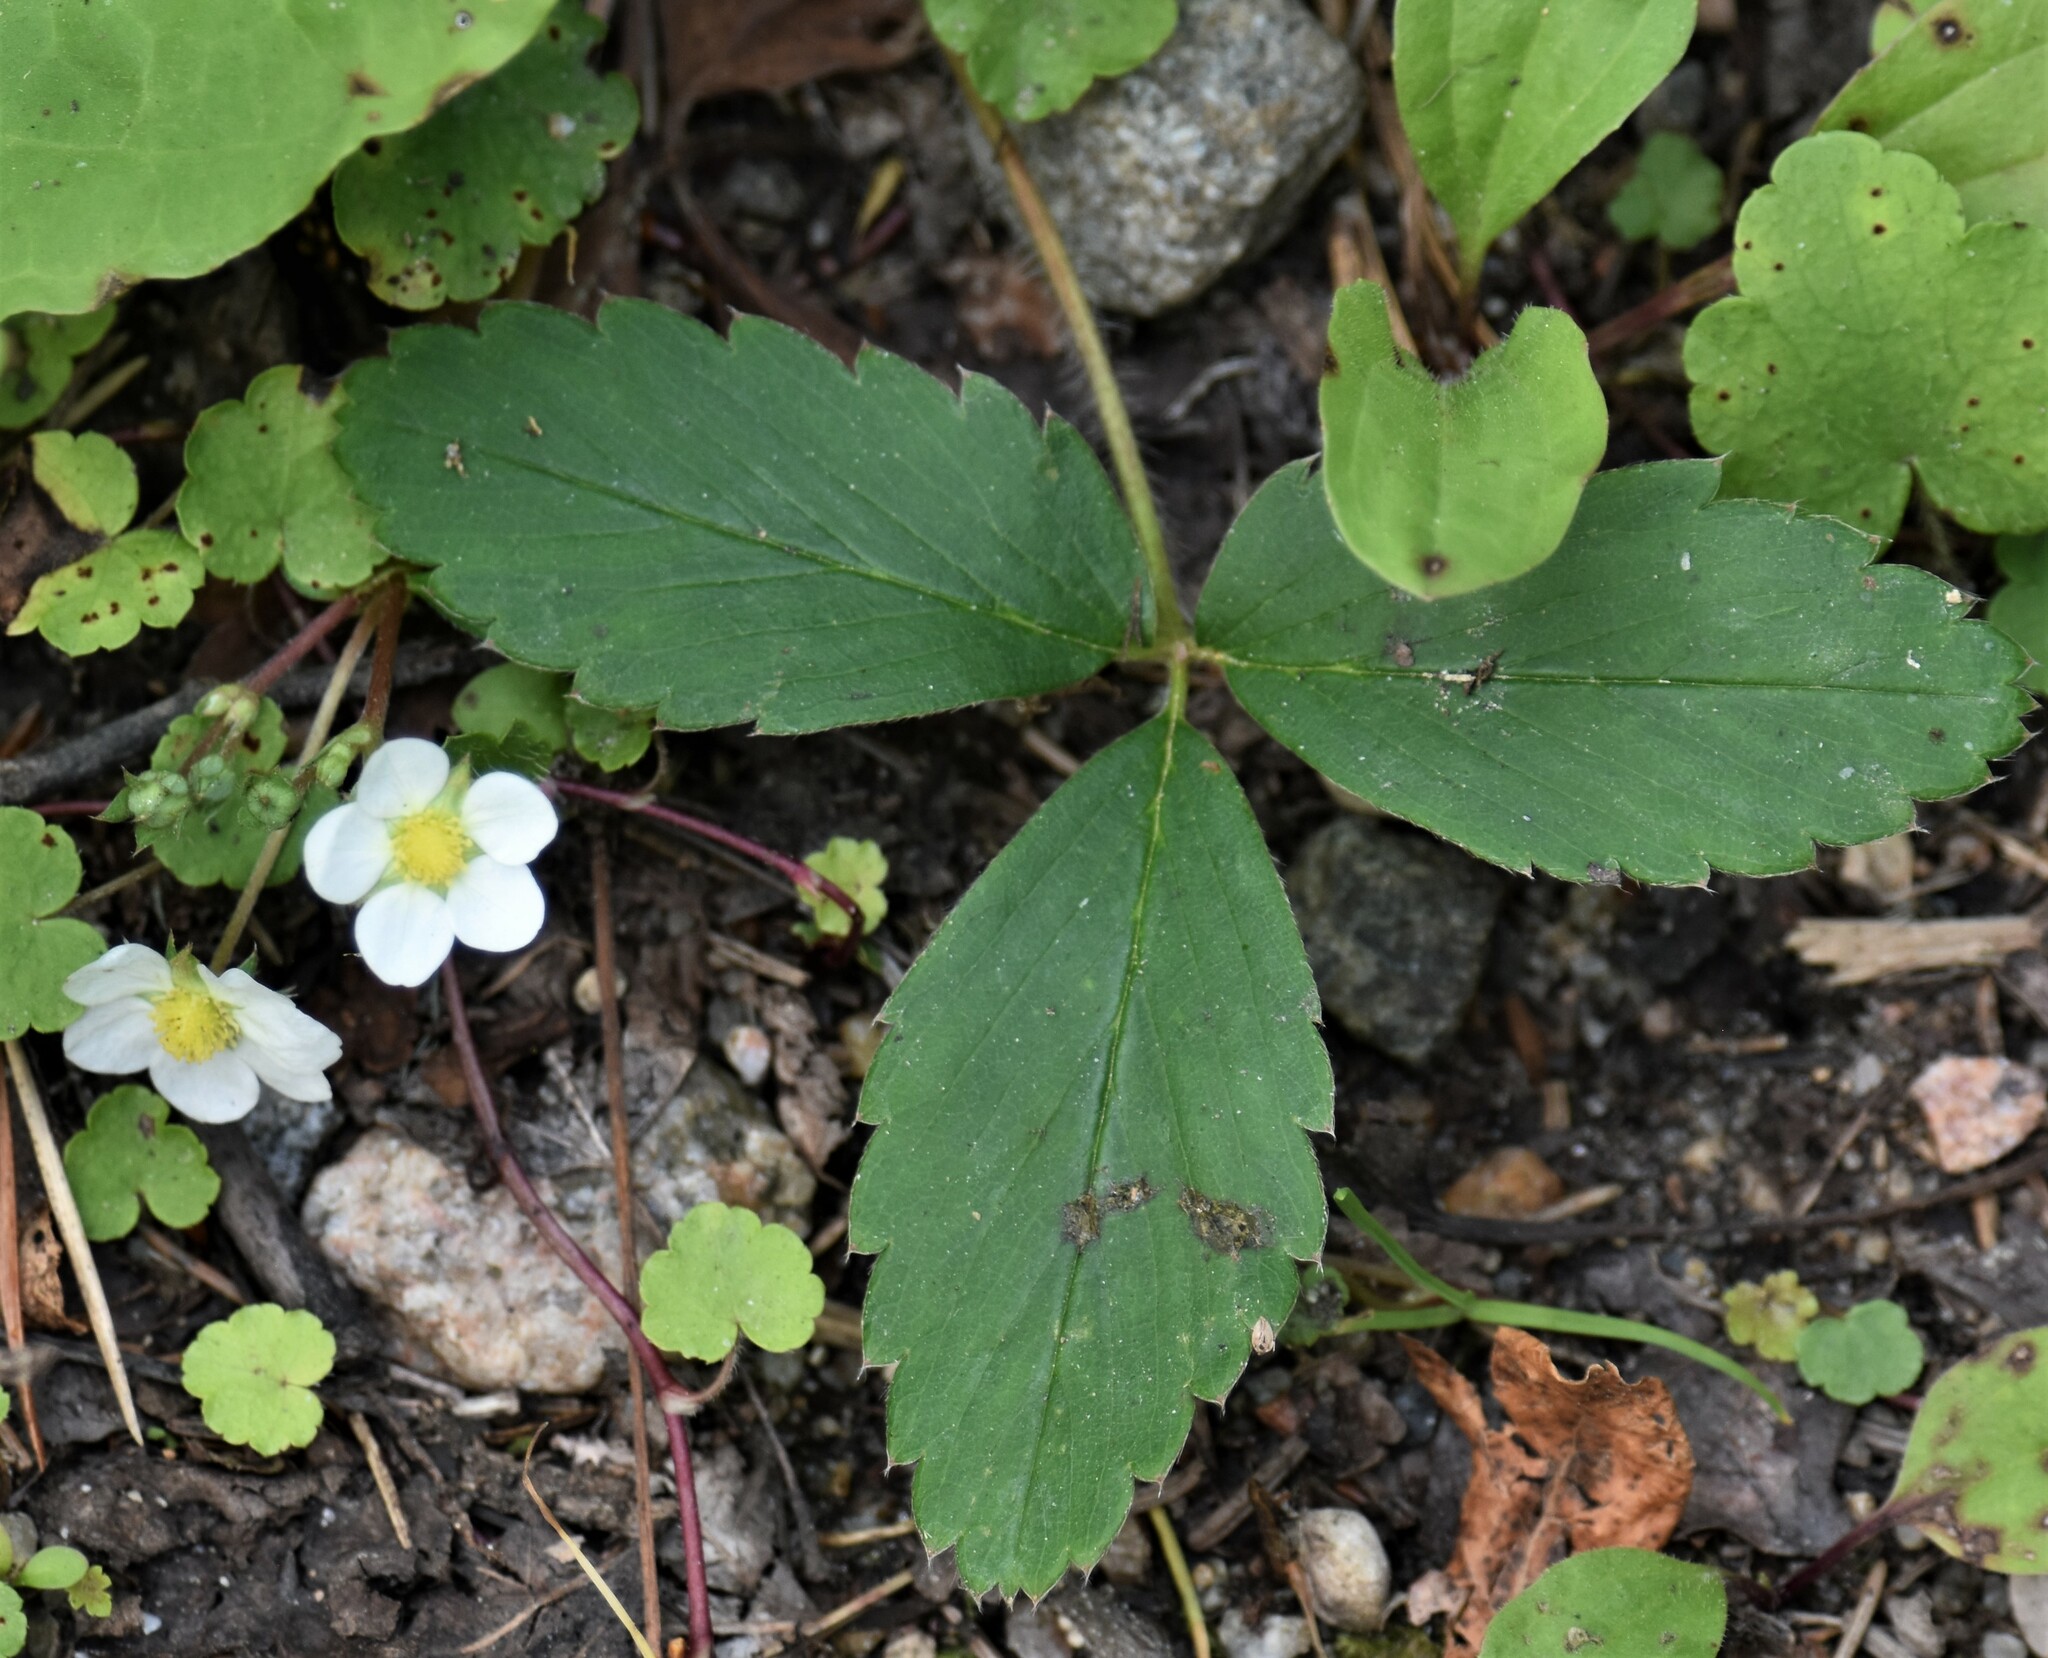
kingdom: Plantae
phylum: Tracheophyta
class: Magnoliopsida
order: Rosales
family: Rosaceae
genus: Fragaria
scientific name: Fragaria virginiana
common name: Thickleaved wild strawberry
